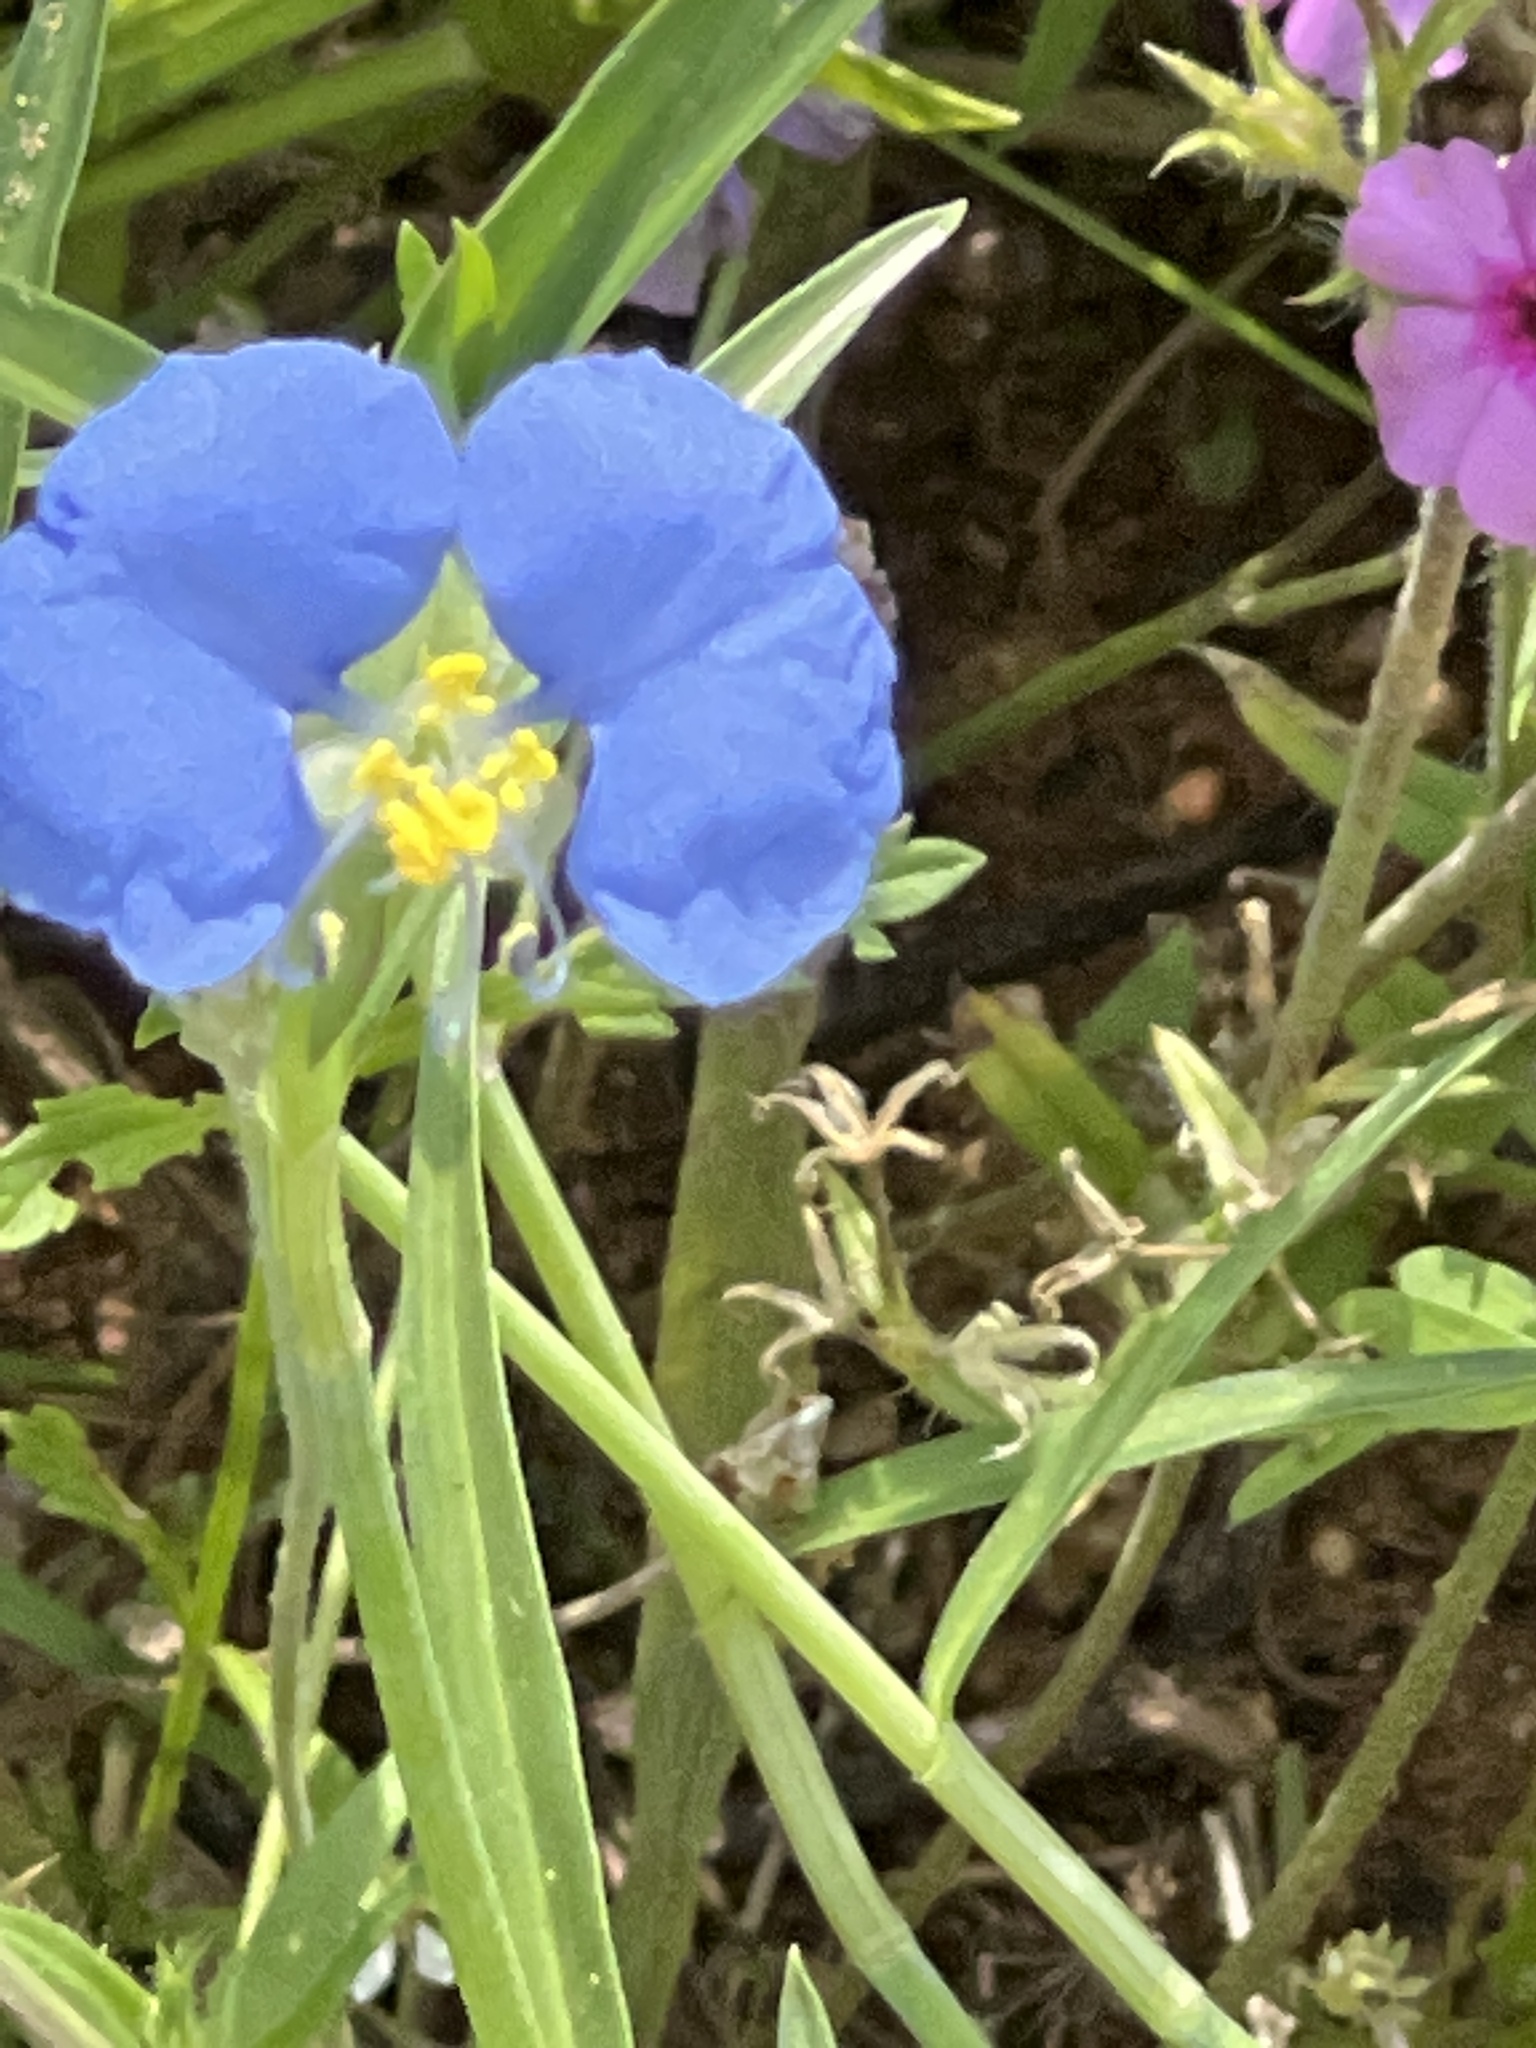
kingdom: Plantae
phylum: Tracheophyta
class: Liliopsida
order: Commelinales
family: Commelinaceae
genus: Commelina
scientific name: Commelina erecta
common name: Blousel blommetjie
